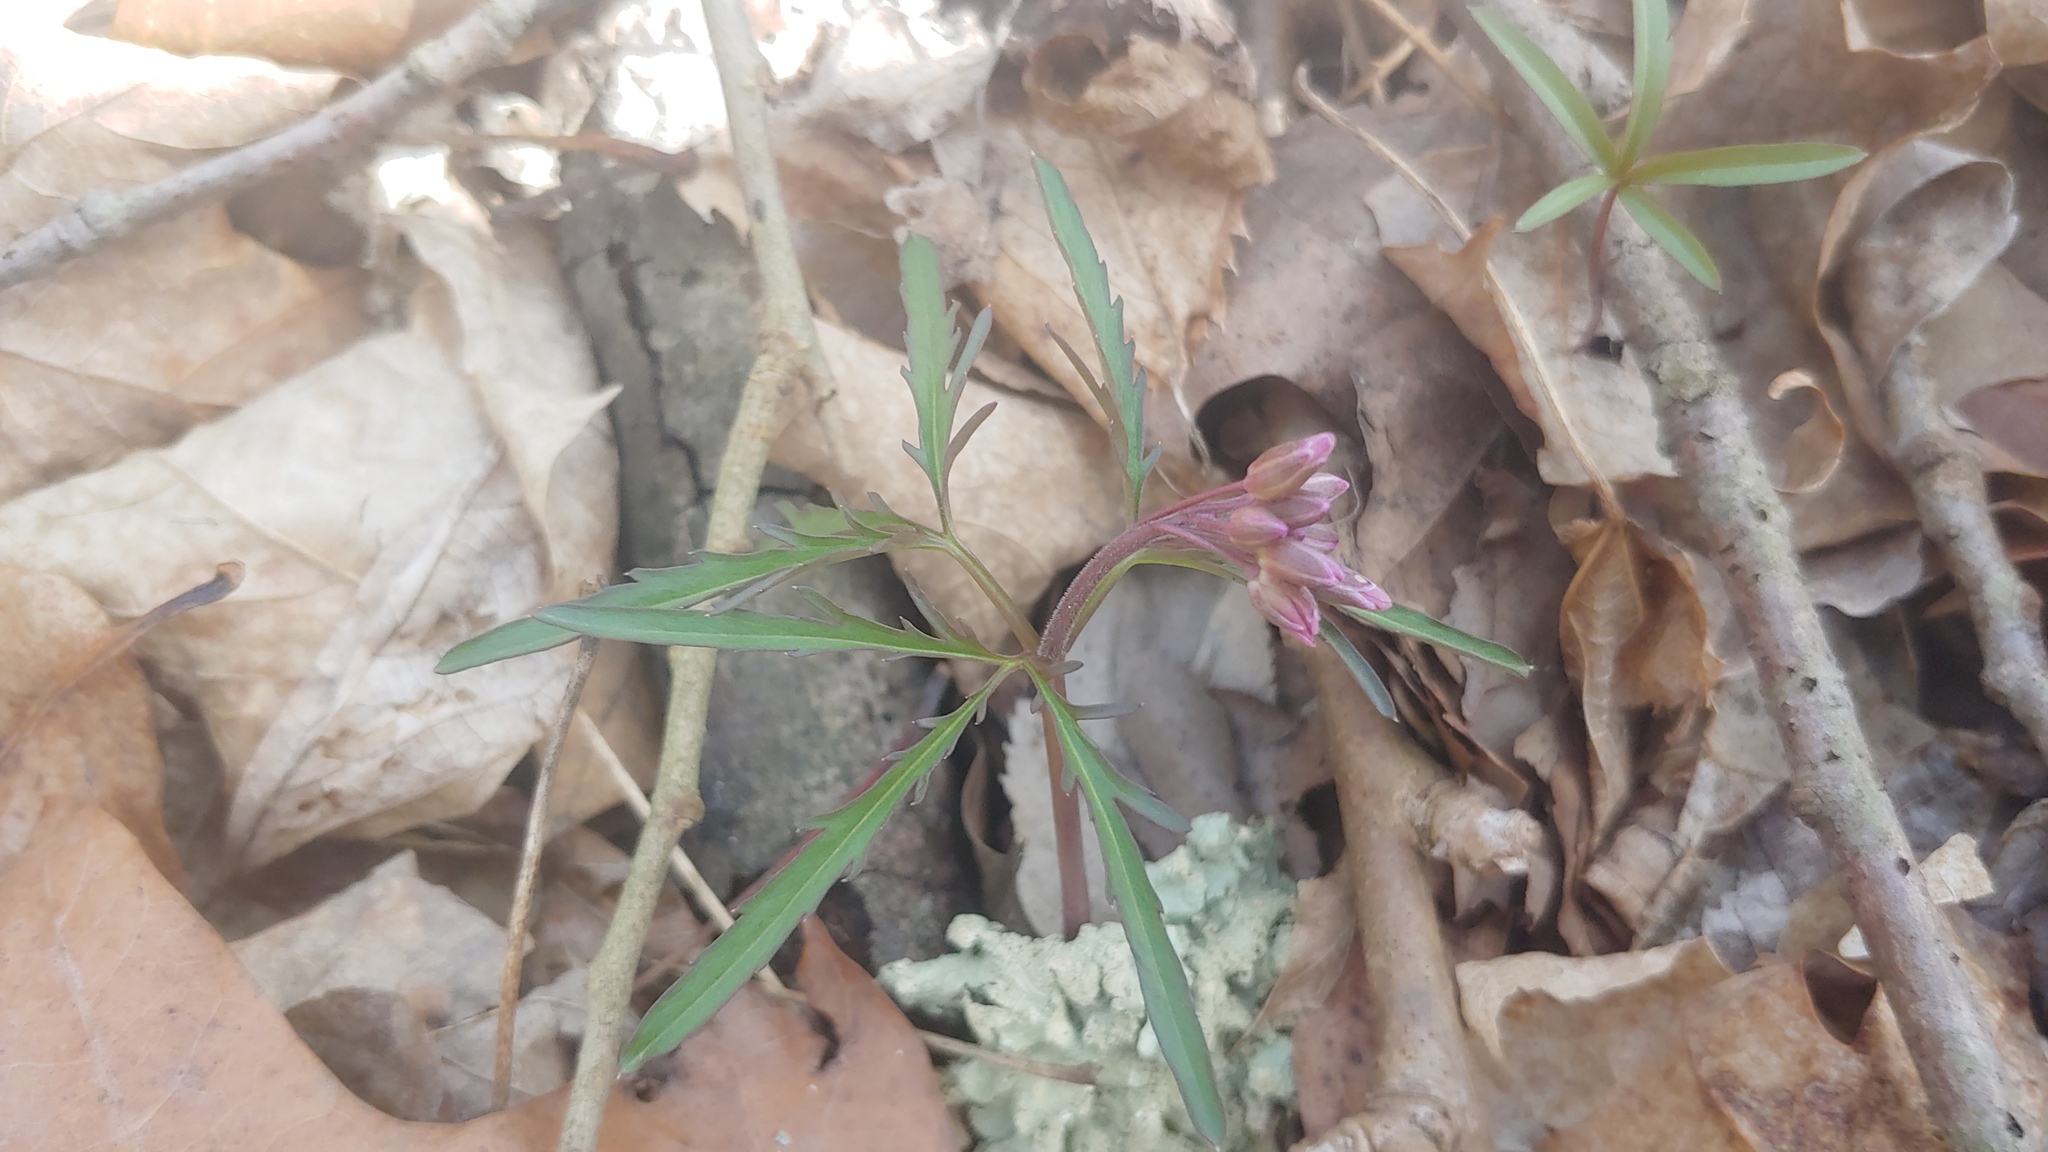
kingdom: Plantae
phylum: Tracheophyta
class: Magnoliopsida
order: Brassicales
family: Brassicaceae
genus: Cardamine
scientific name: Cardamine concatenata
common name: Cut-leaf toothcup
